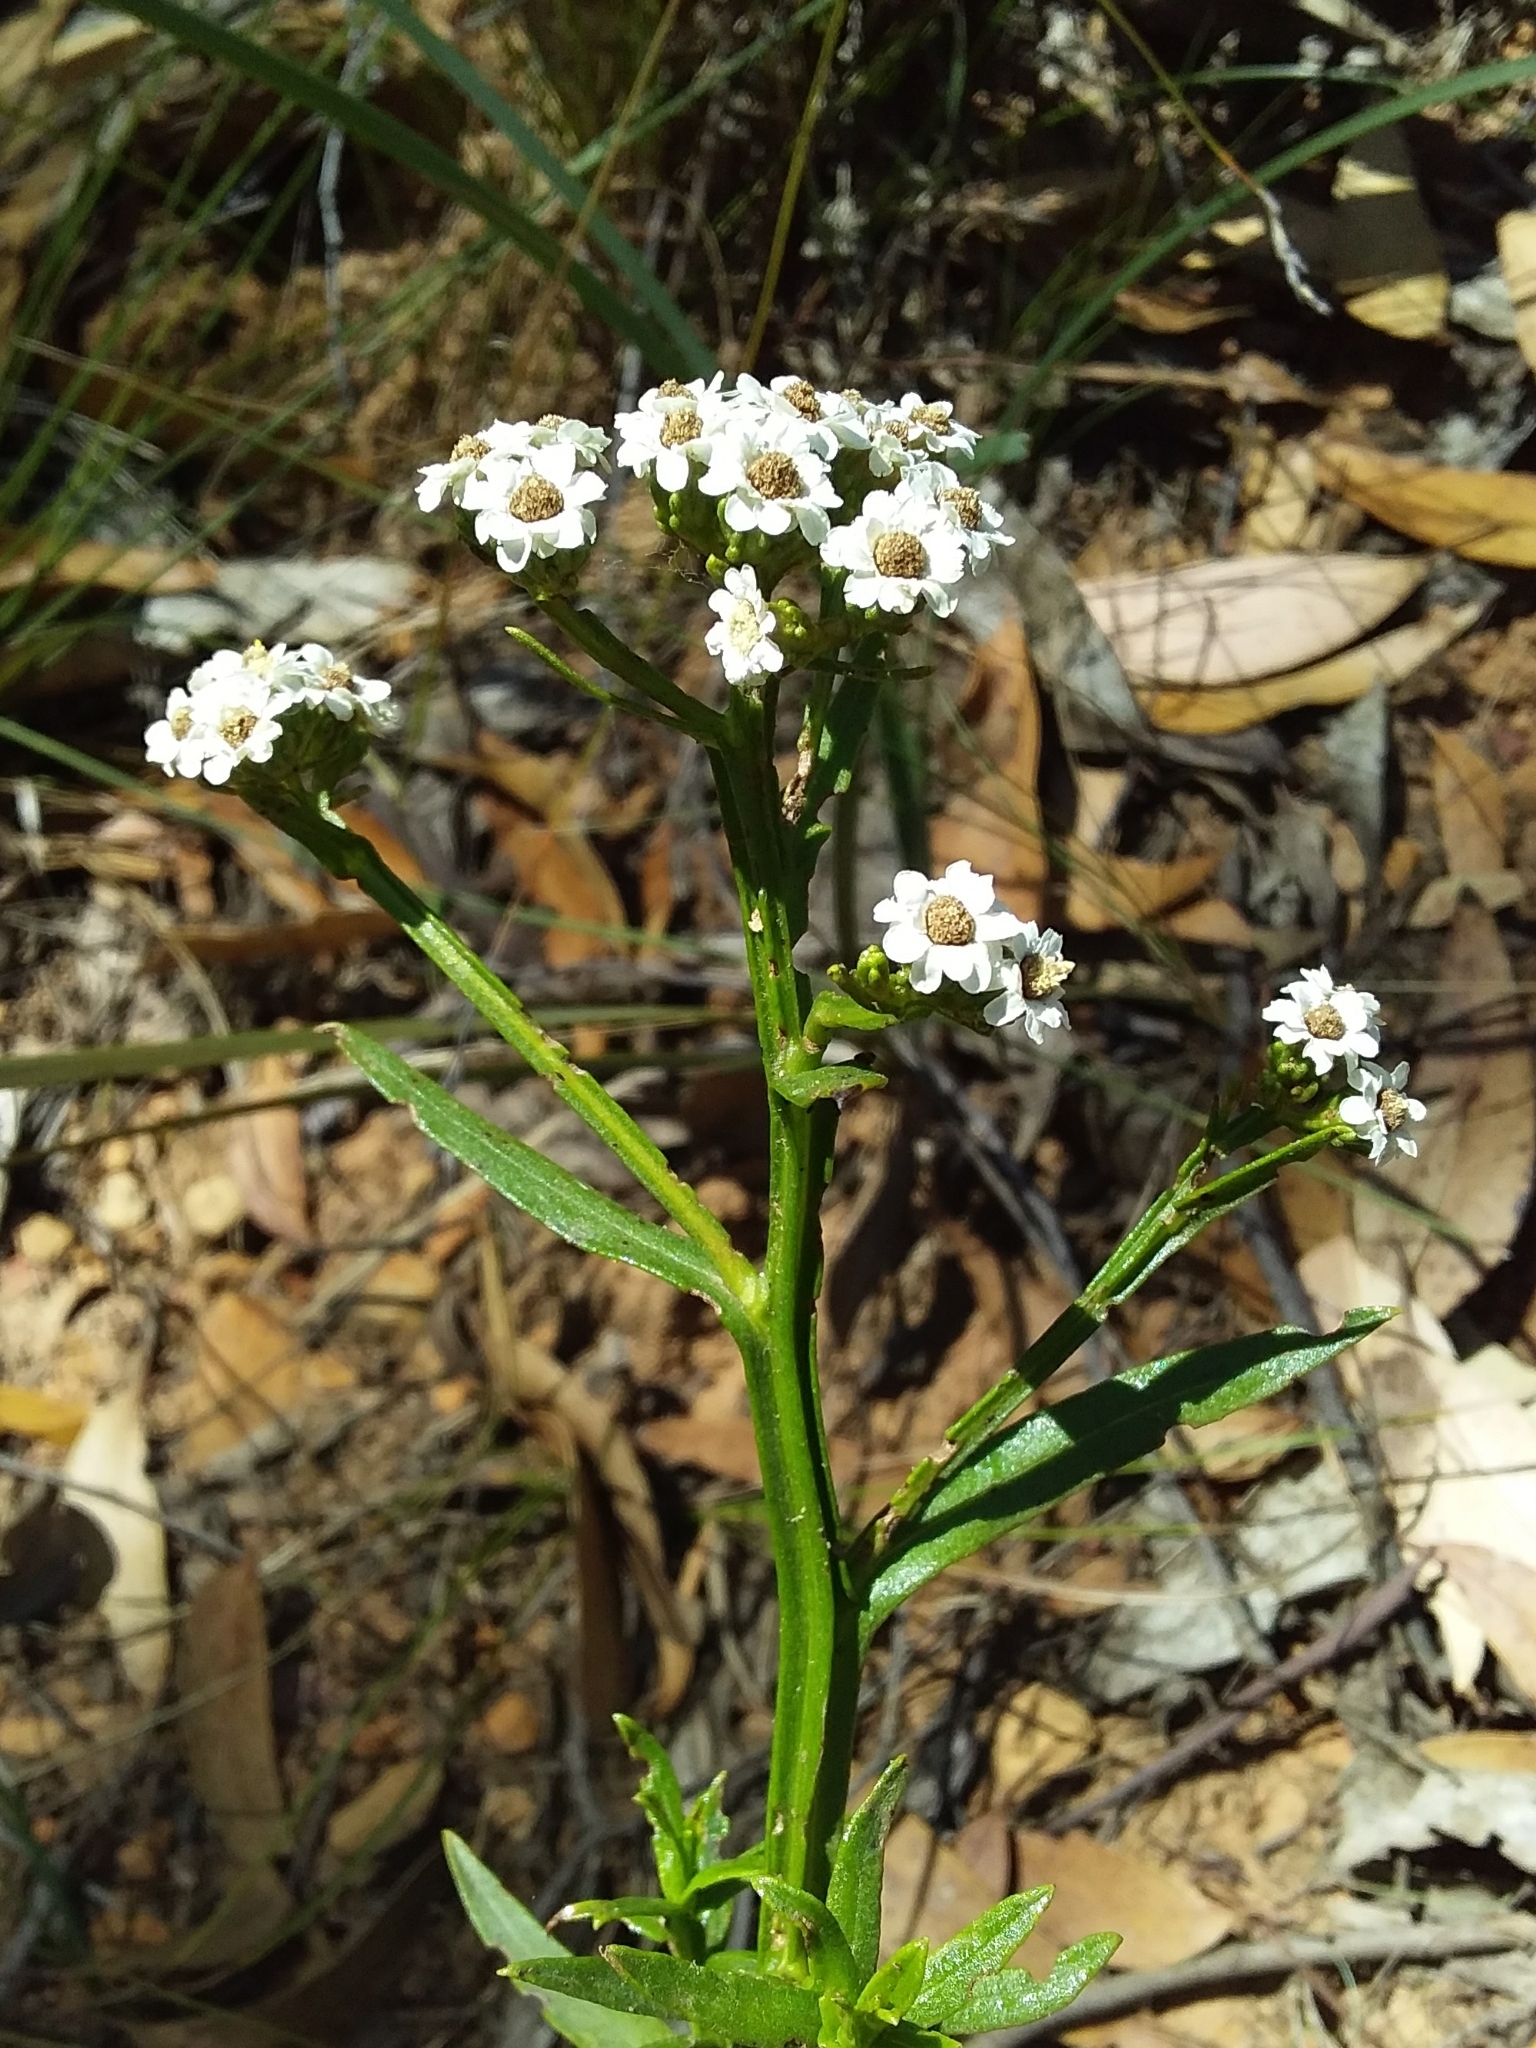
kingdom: Plantae
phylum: Tracheophyta
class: Magnoliopsida
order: Asterales
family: Asteraceae
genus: Ixodia
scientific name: Ixodia achillaeoides
